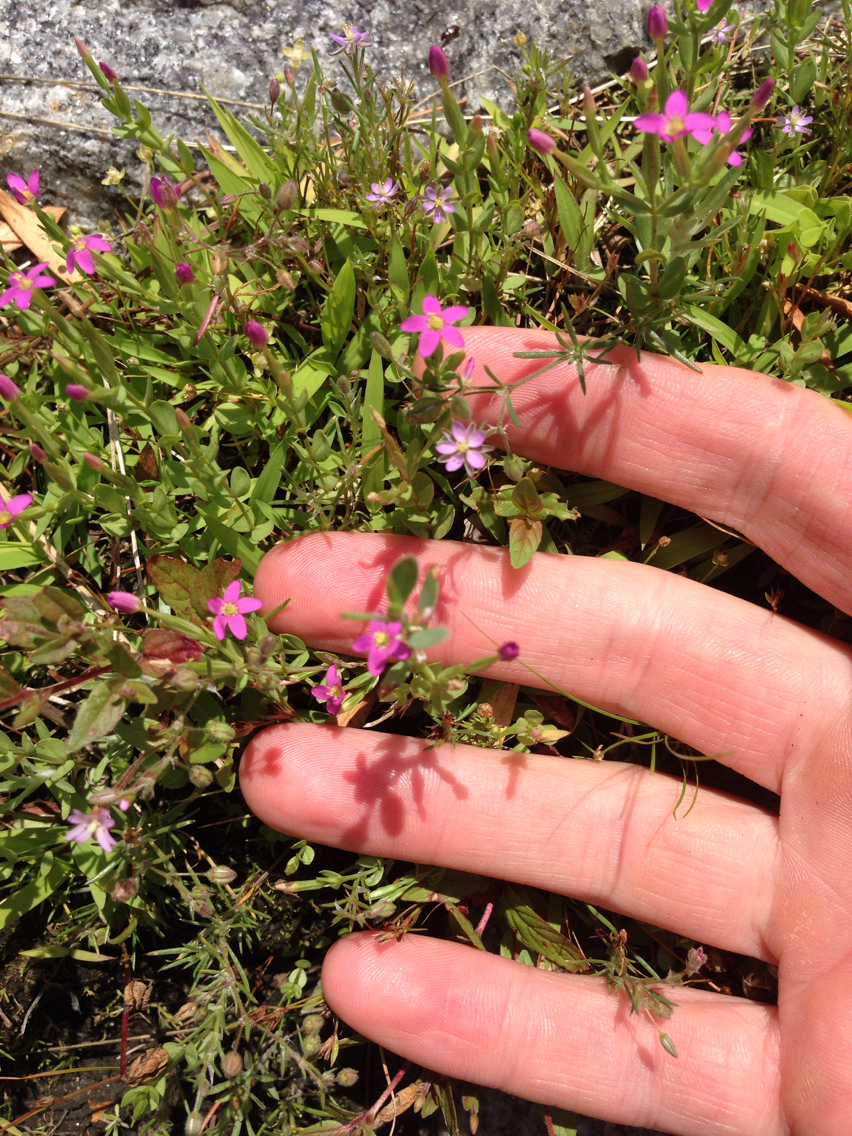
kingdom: Plantae
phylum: Tracheophyta
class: Magnoliopsida
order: Gentianales
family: Gentianaceae
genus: Centaurium
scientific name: Centaurium pulchellum
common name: Lesser centaury
